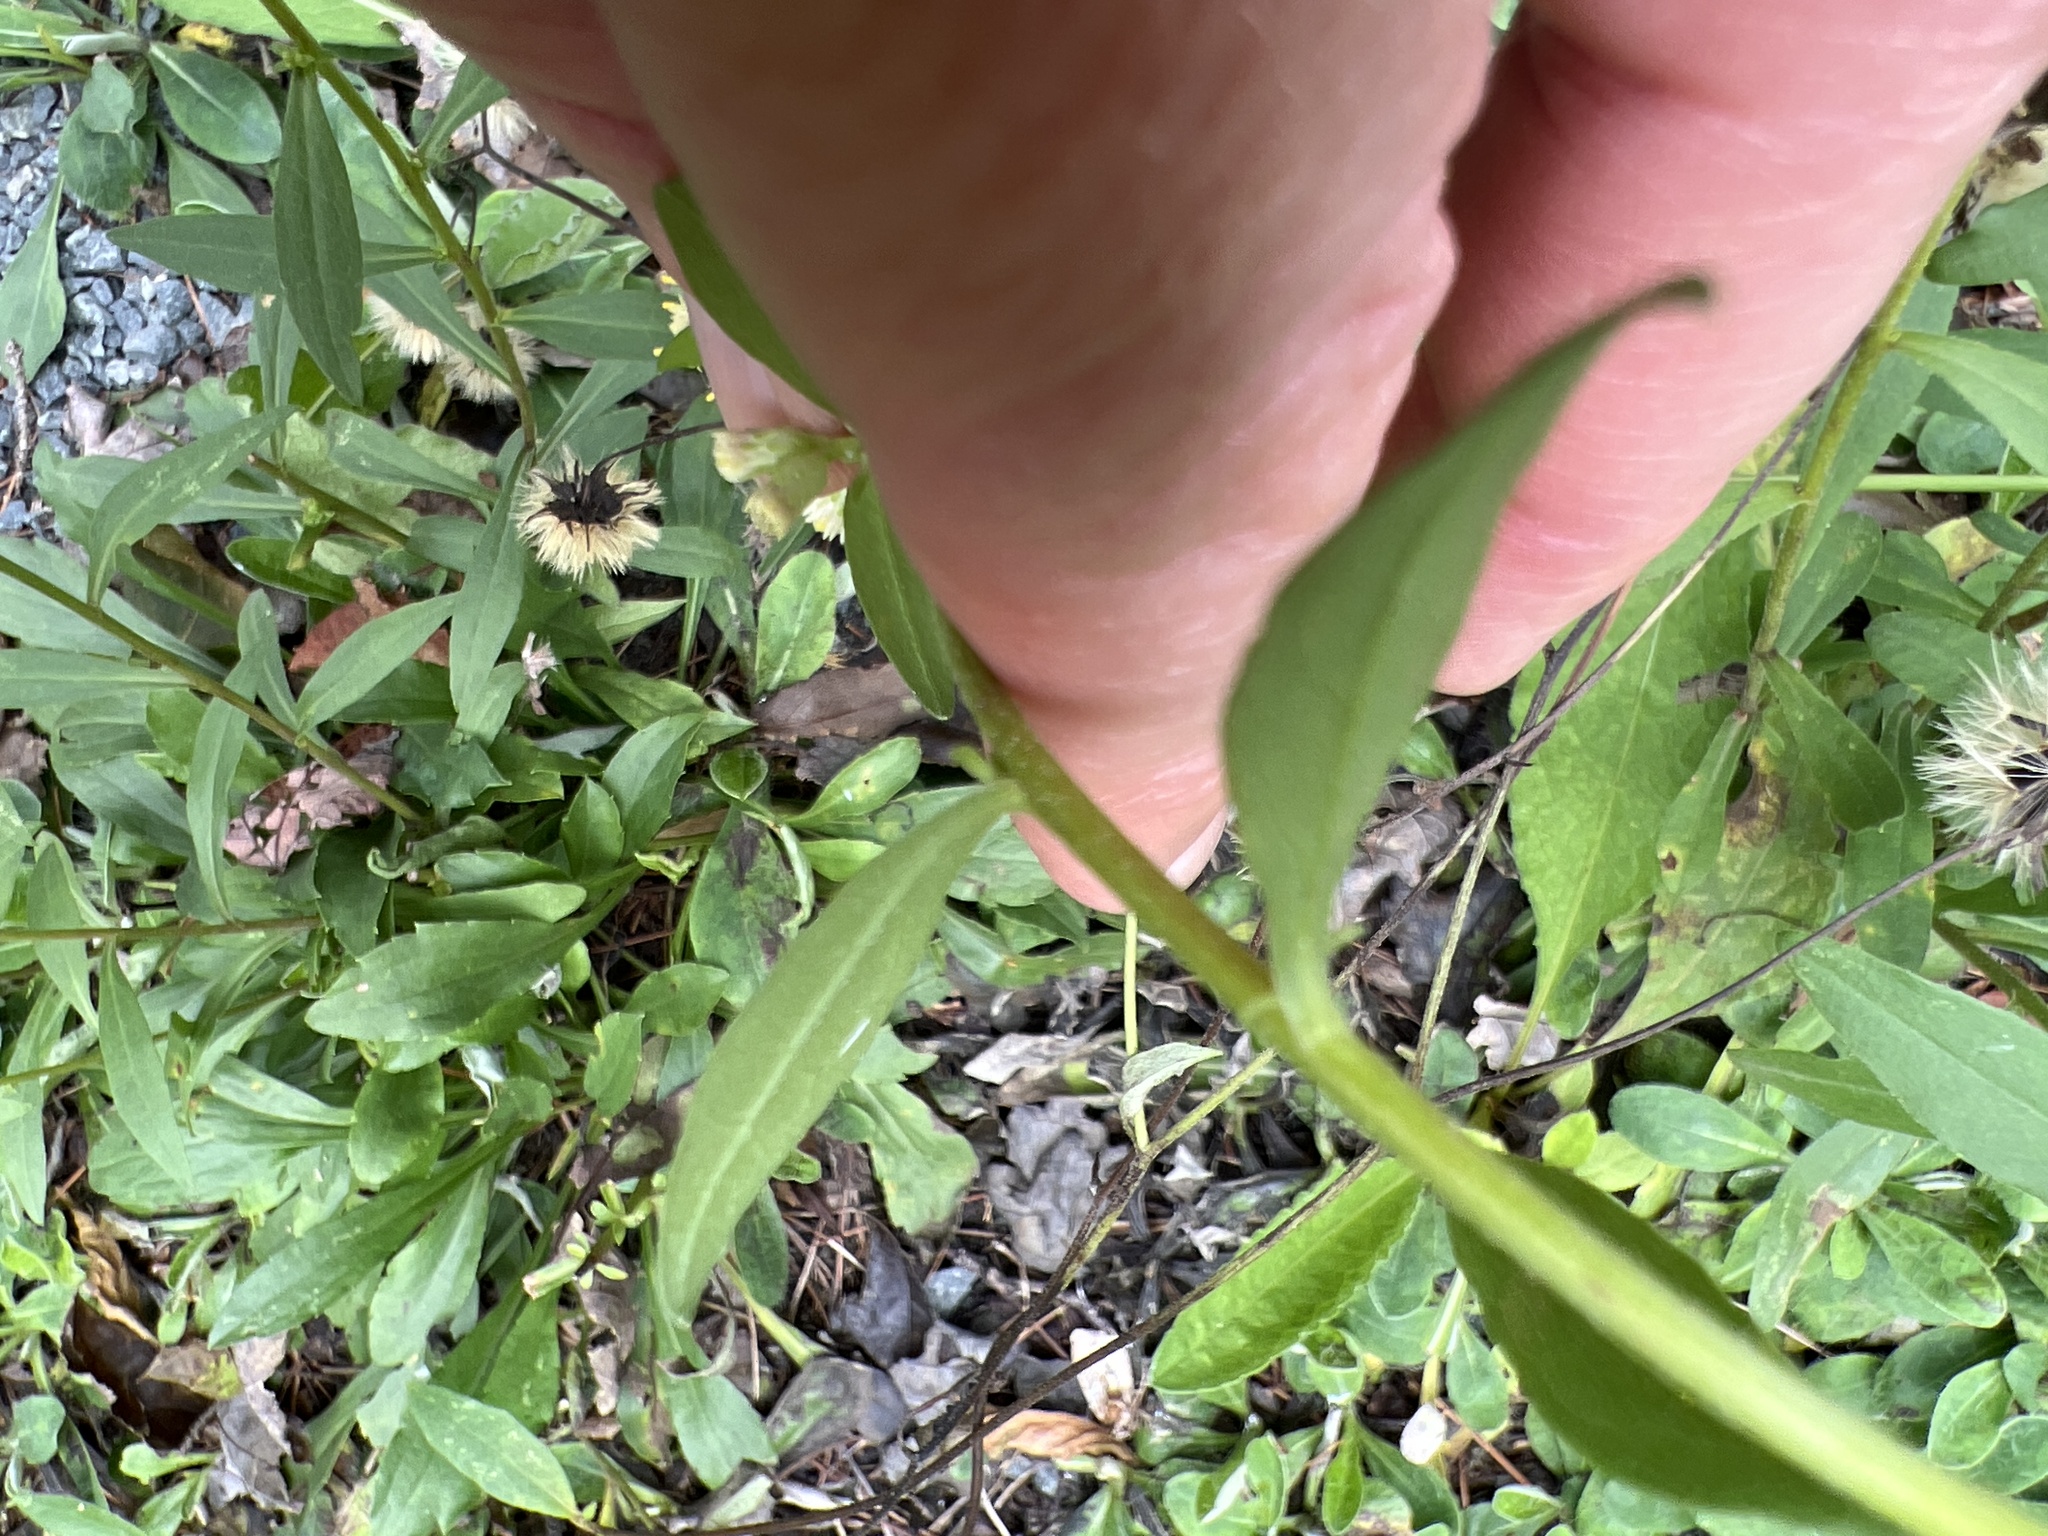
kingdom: Plantae
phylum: Tracheophyta
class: Magnoliopsida
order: Asterales
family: Asteraceae
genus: Solidago
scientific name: Solidago bicolor
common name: Silverrod
